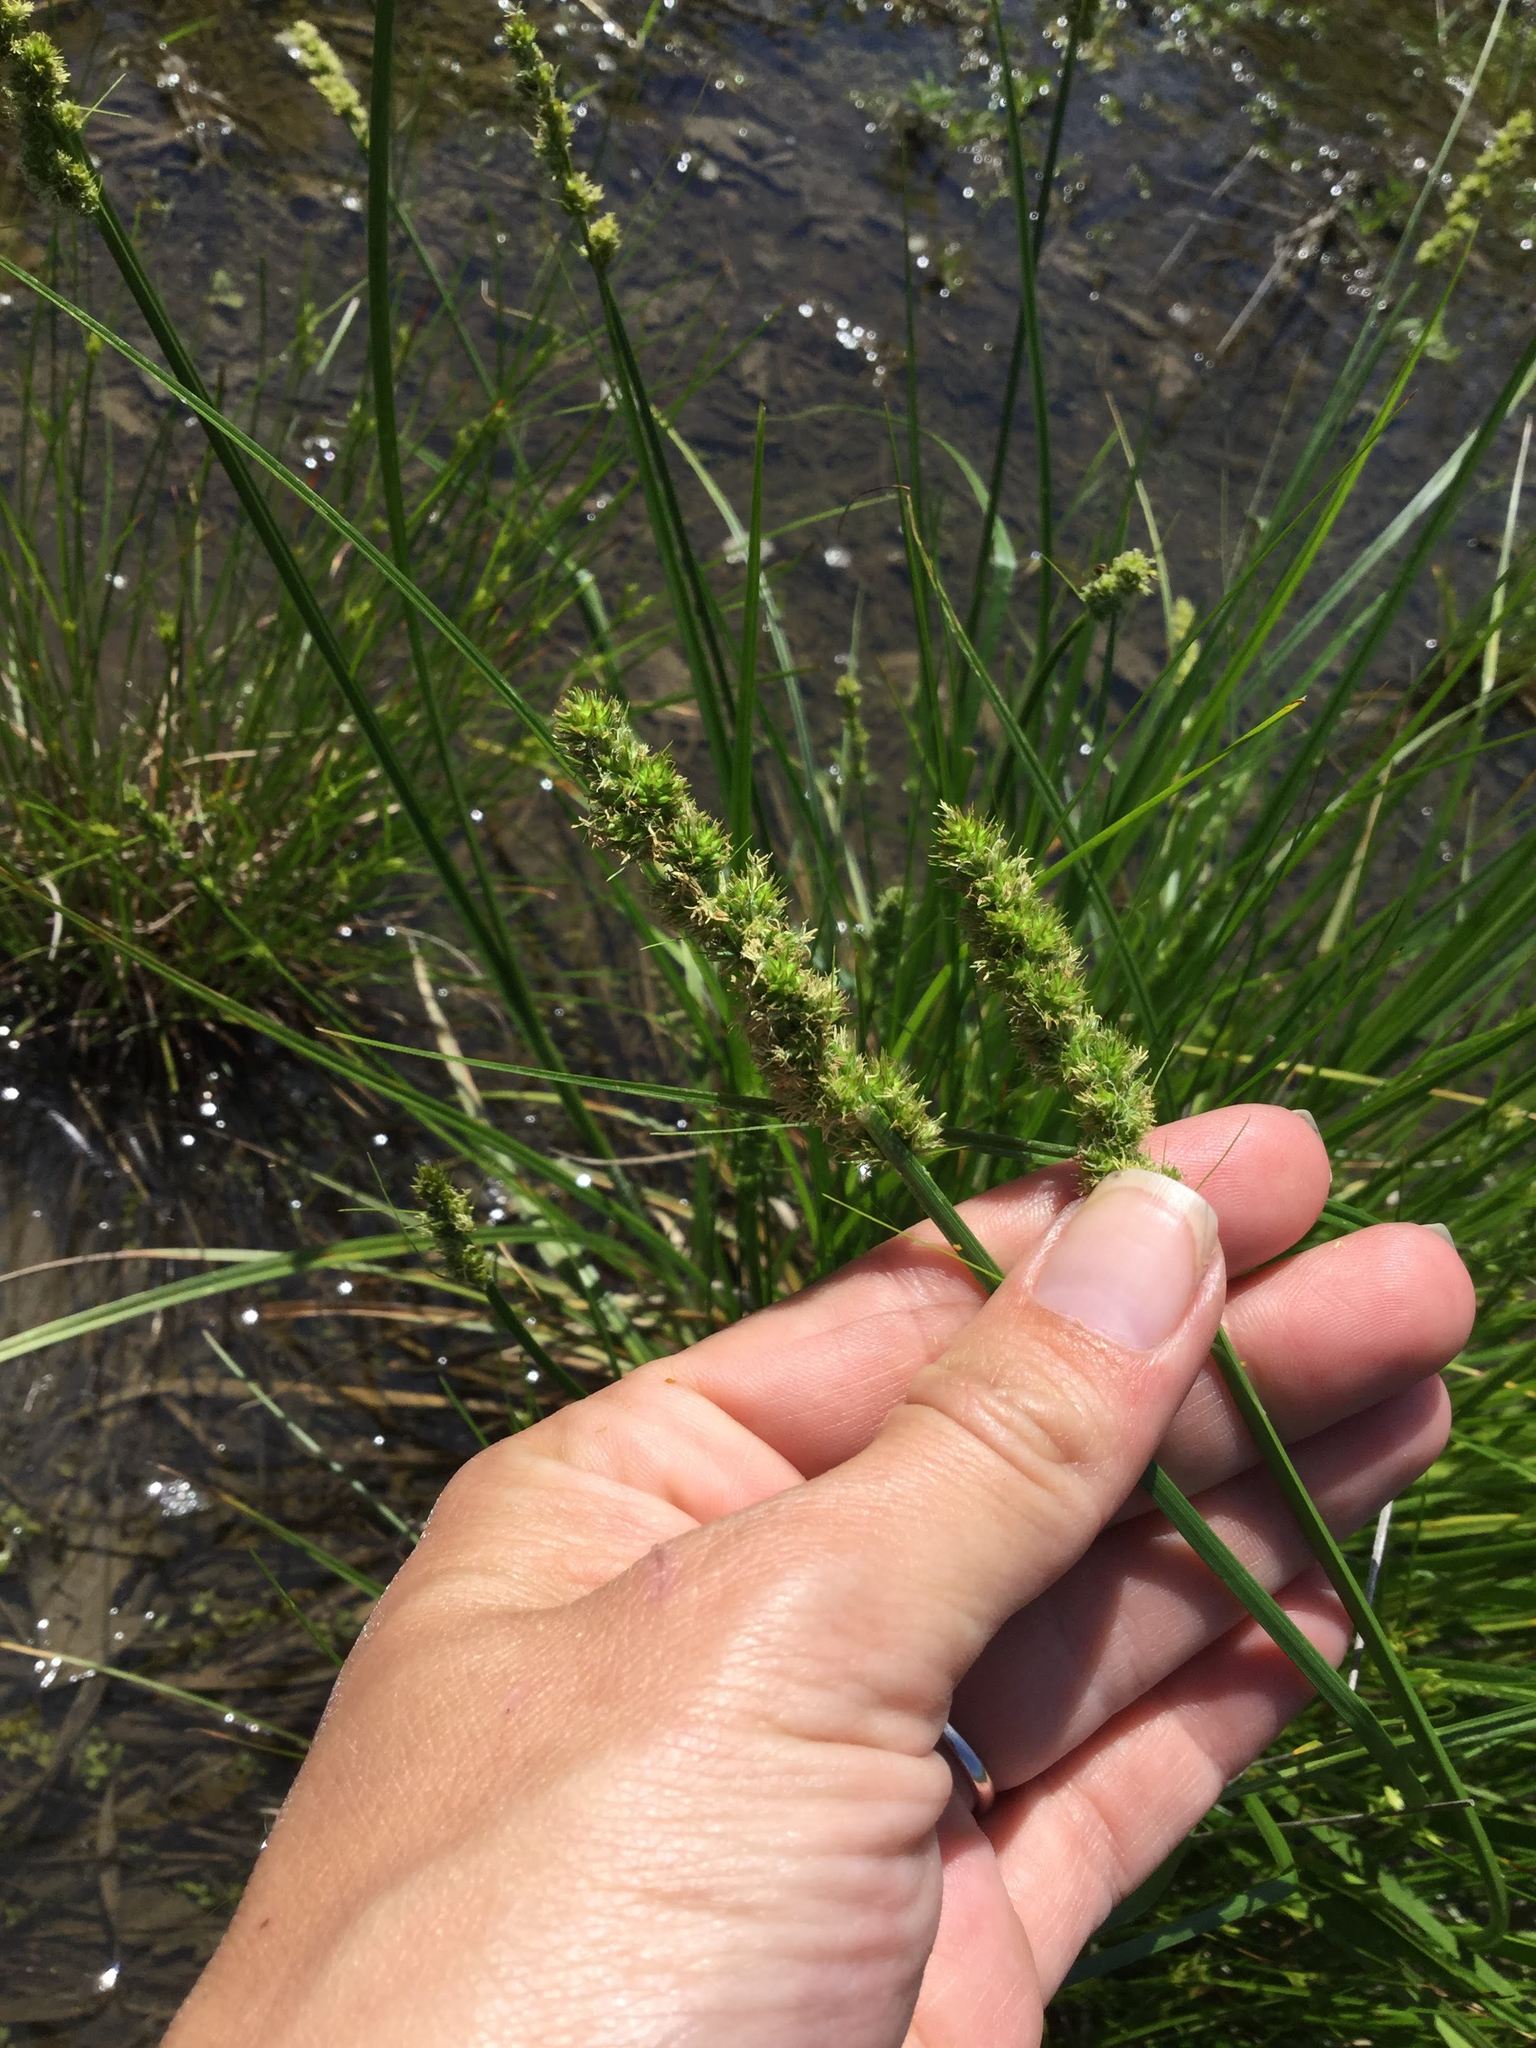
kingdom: Plantae
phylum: Tracheophyta
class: Liliopsida
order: Poales
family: Cyperaceae
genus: Carex
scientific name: Carex vulpinoidea
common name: American fox-sedge
